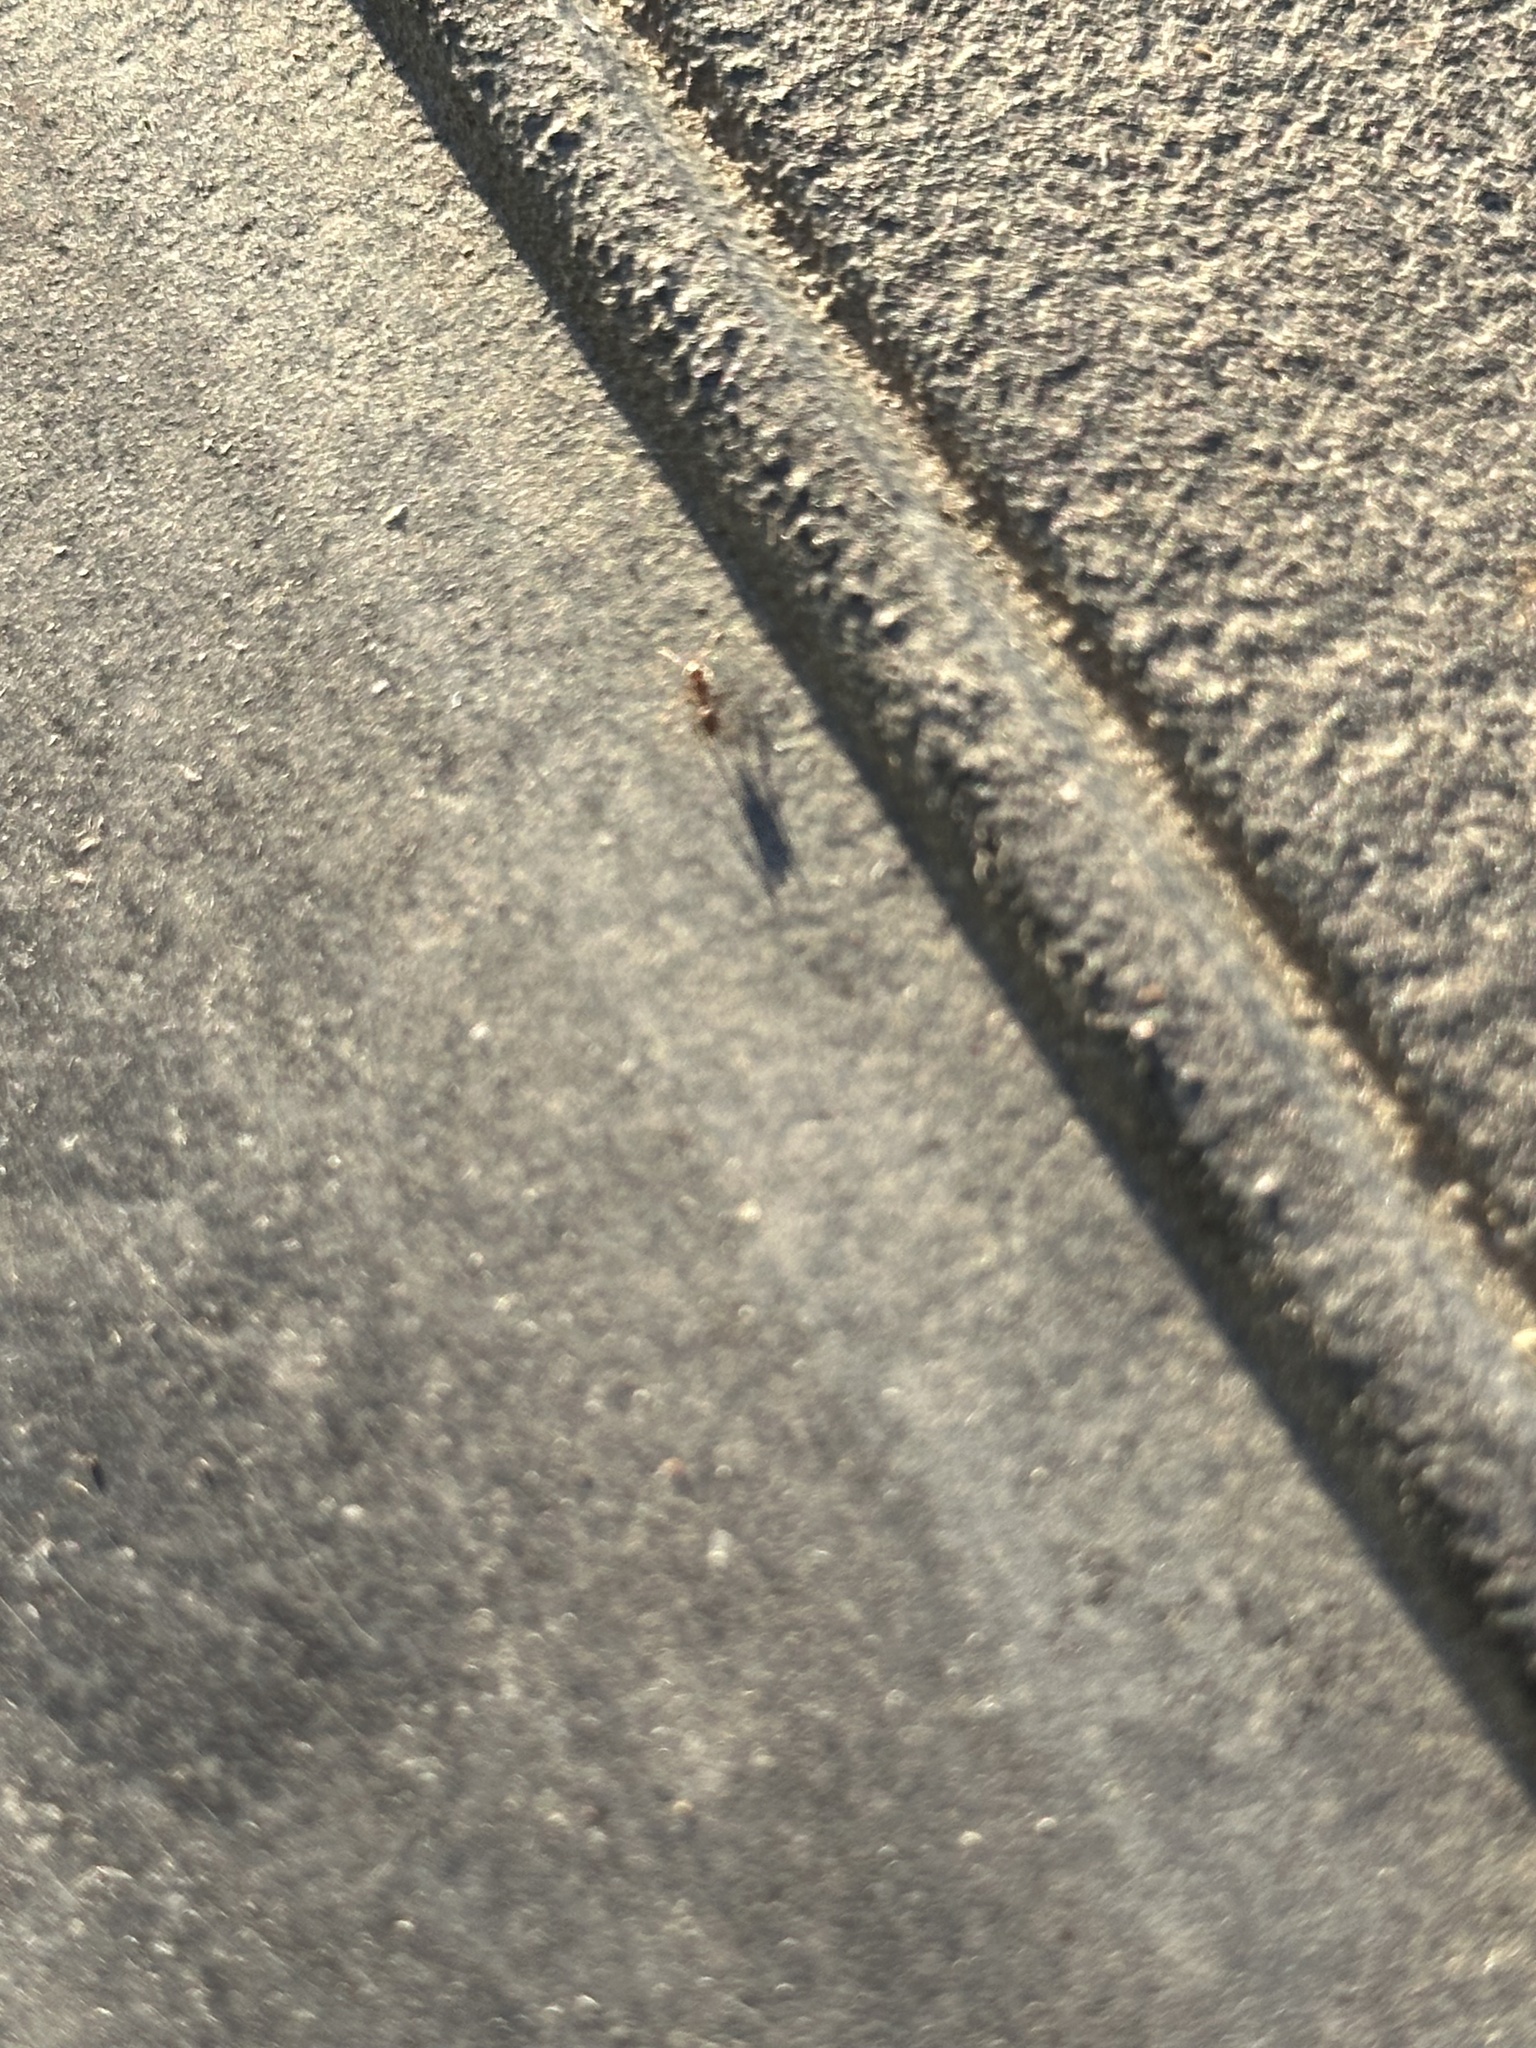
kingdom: Animalia
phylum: Arthropoda
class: Insecta
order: Hymenoptera
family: Formicidae
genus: Linepithema
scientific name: Linepithema humile
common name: Argentine ant
